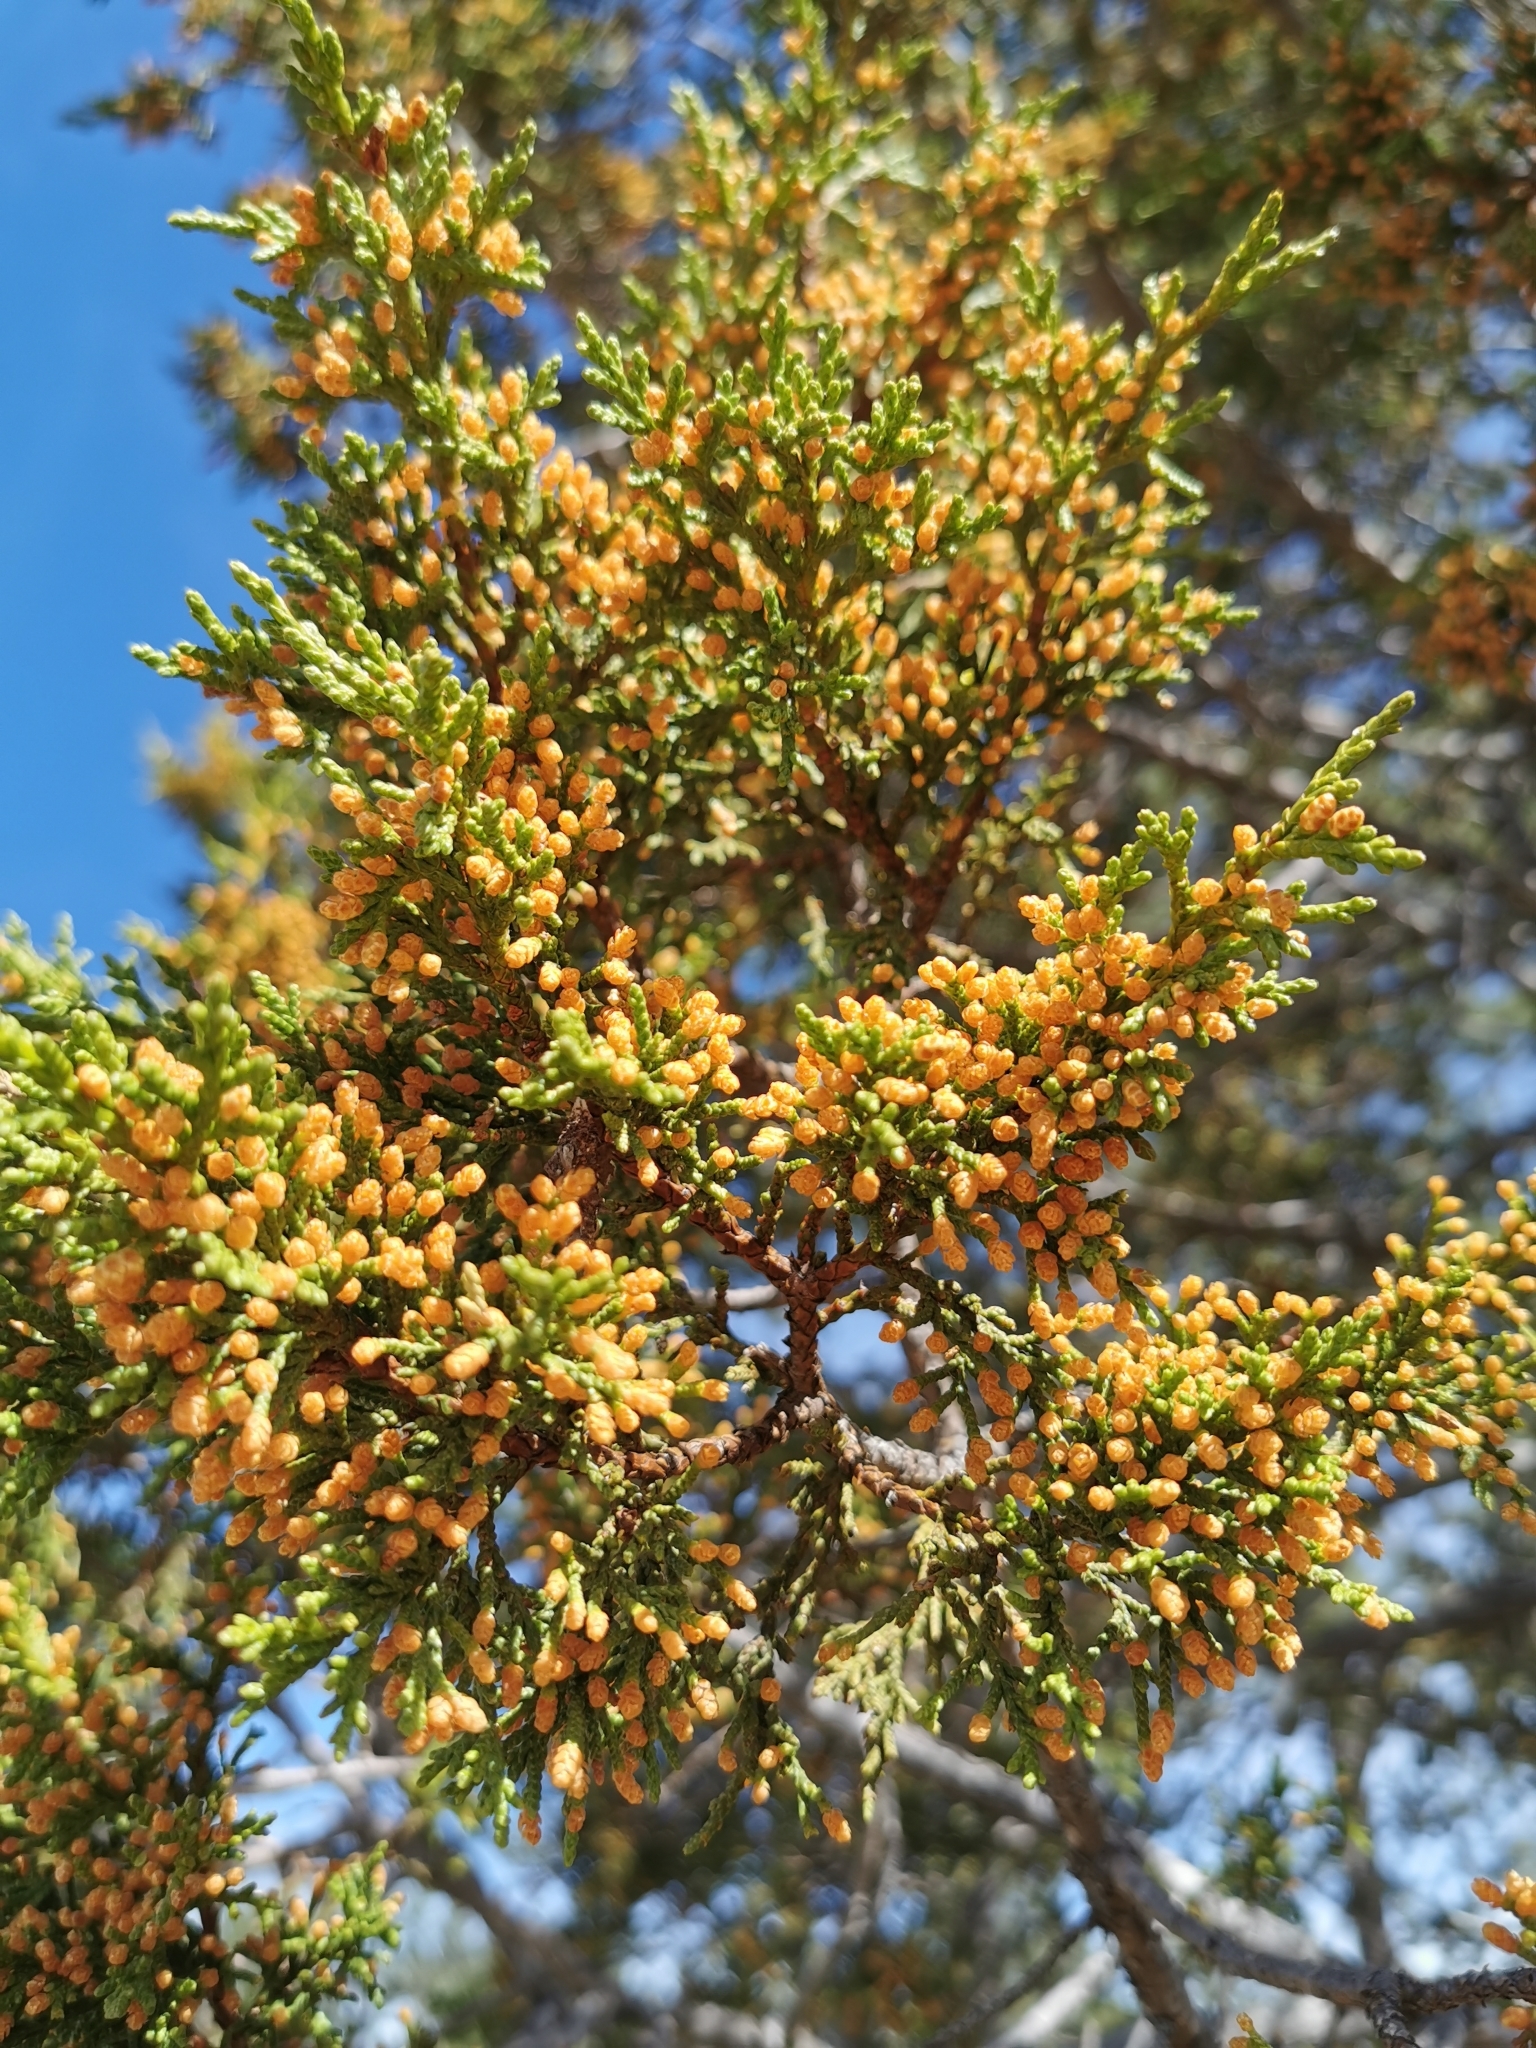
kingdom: Plantae
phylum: Tracheophyta
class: Pinopsida
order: Pinales
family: Cupressaceae
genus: Juniperus
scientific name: Juniperus deppeana
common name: Alligator juniper
